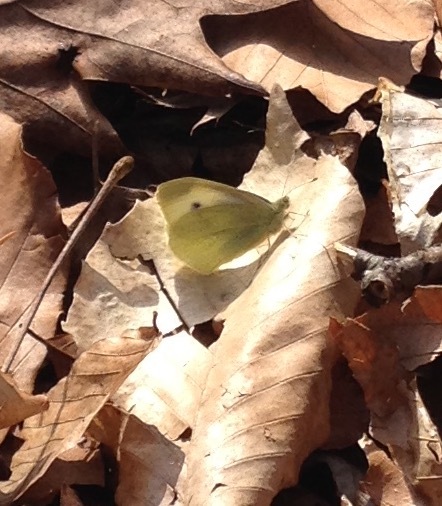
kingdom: Animalia
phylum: Arthropoda
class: Insecta
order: Lepidoptera
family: Pieridae
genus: Pieris
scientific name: Pieris rapae
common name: Small white
